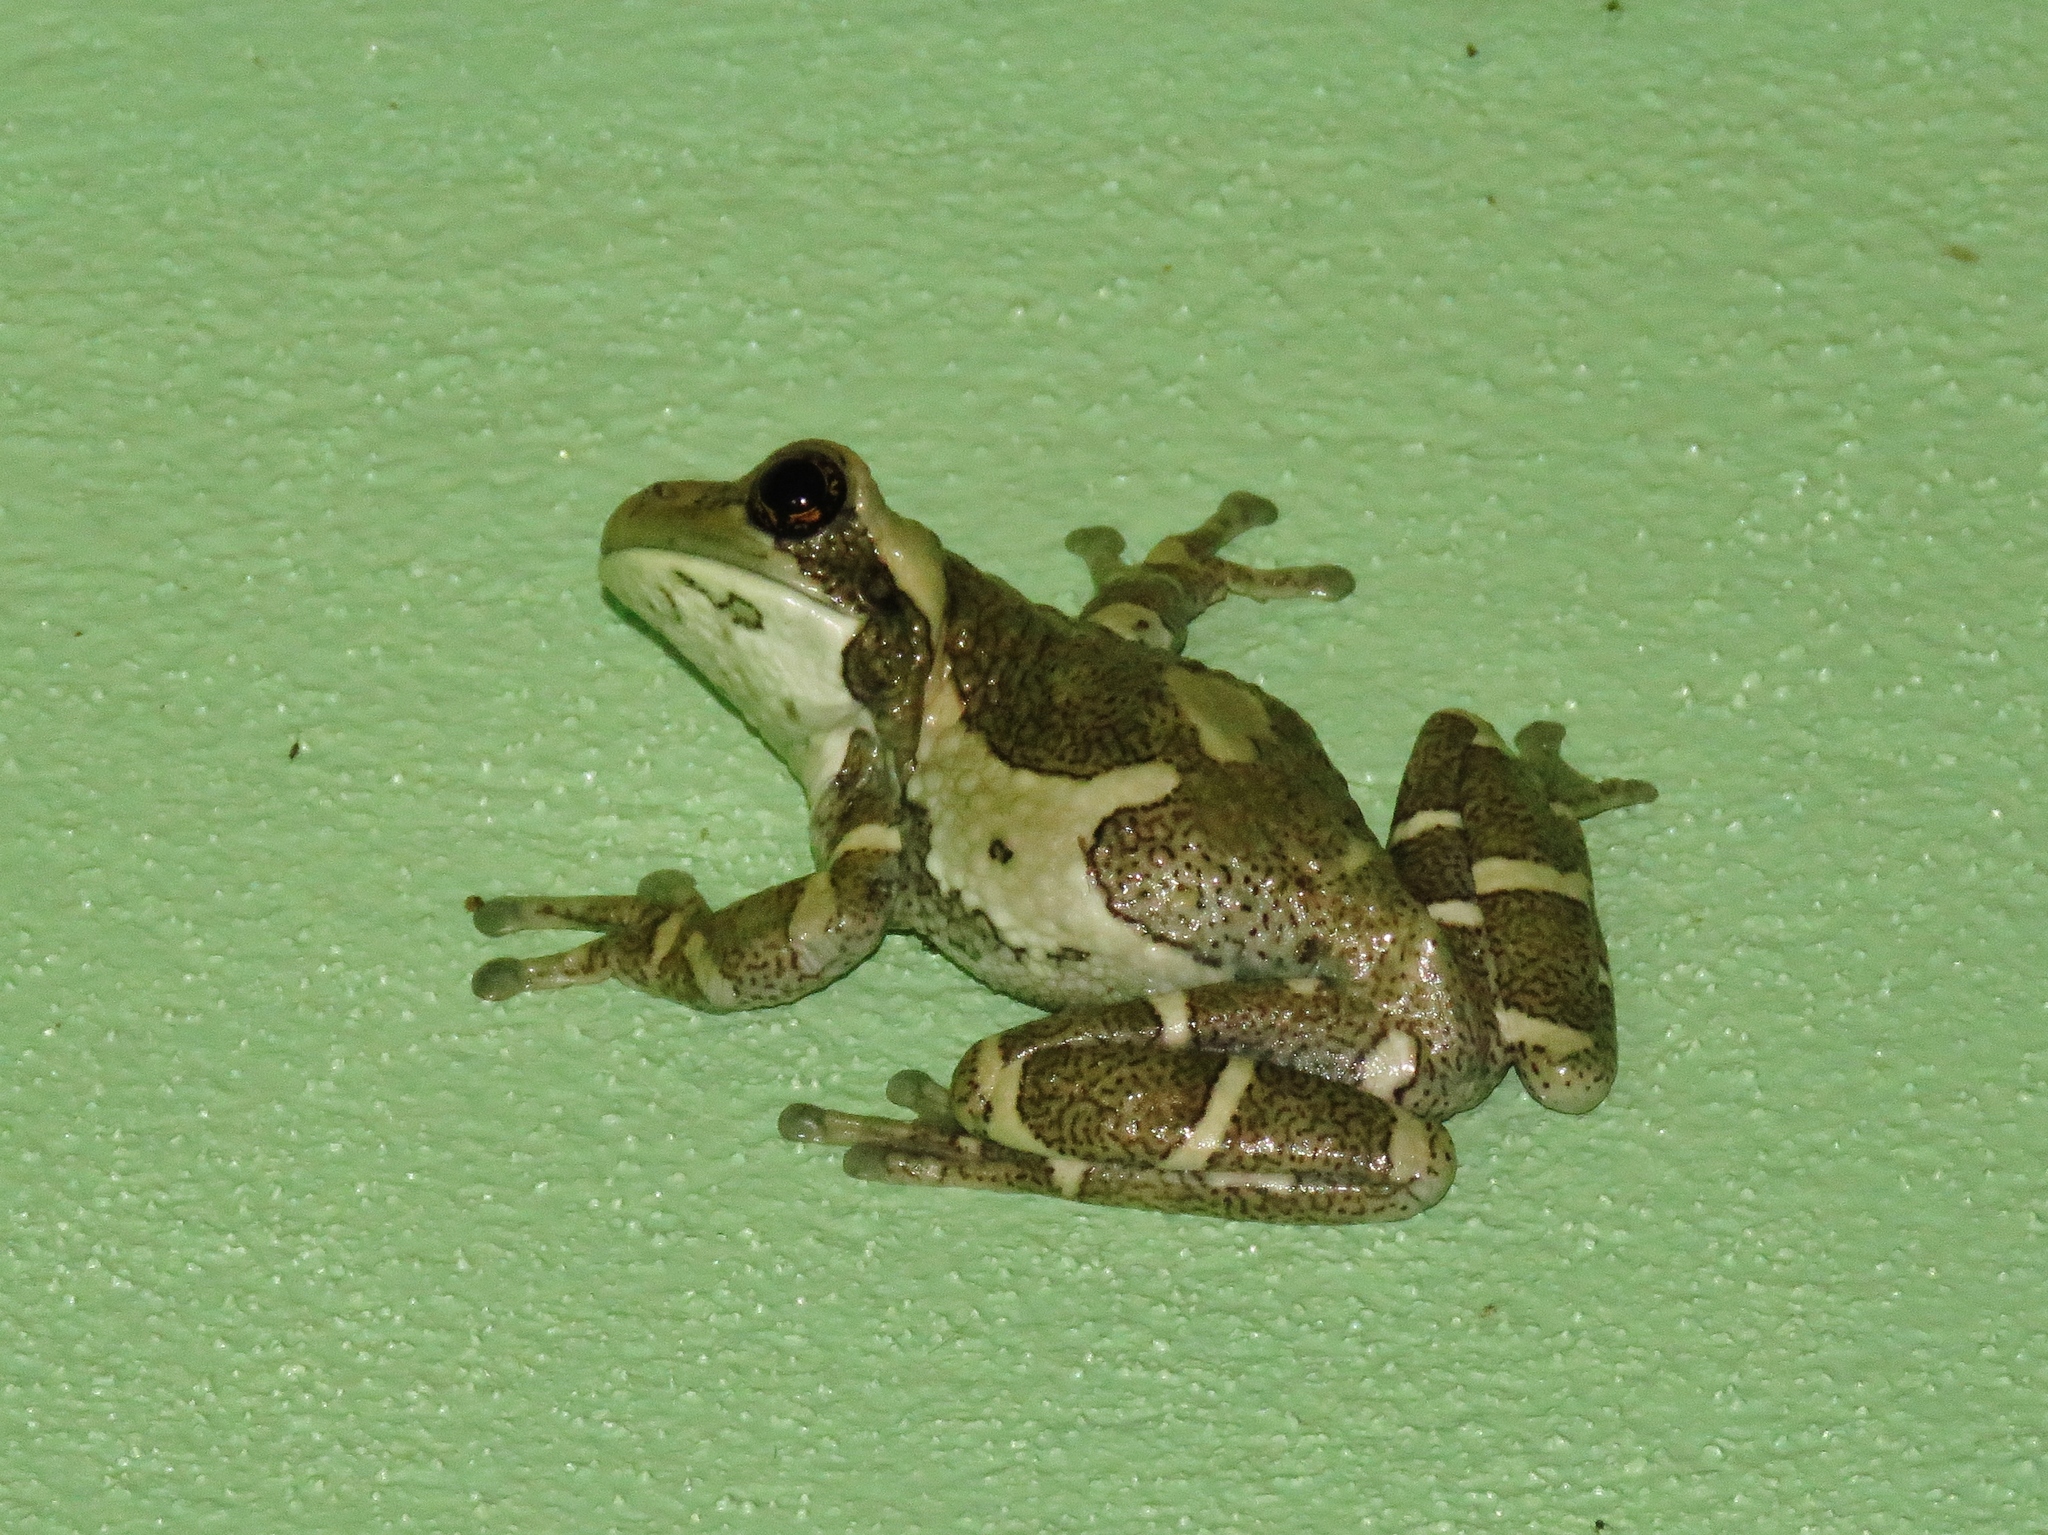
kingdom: Animalia
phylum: Chordata
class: Amphibia
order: Anura
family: Hylidae
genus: Trachycephalus
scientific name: Trachycephalus vermiculatus
